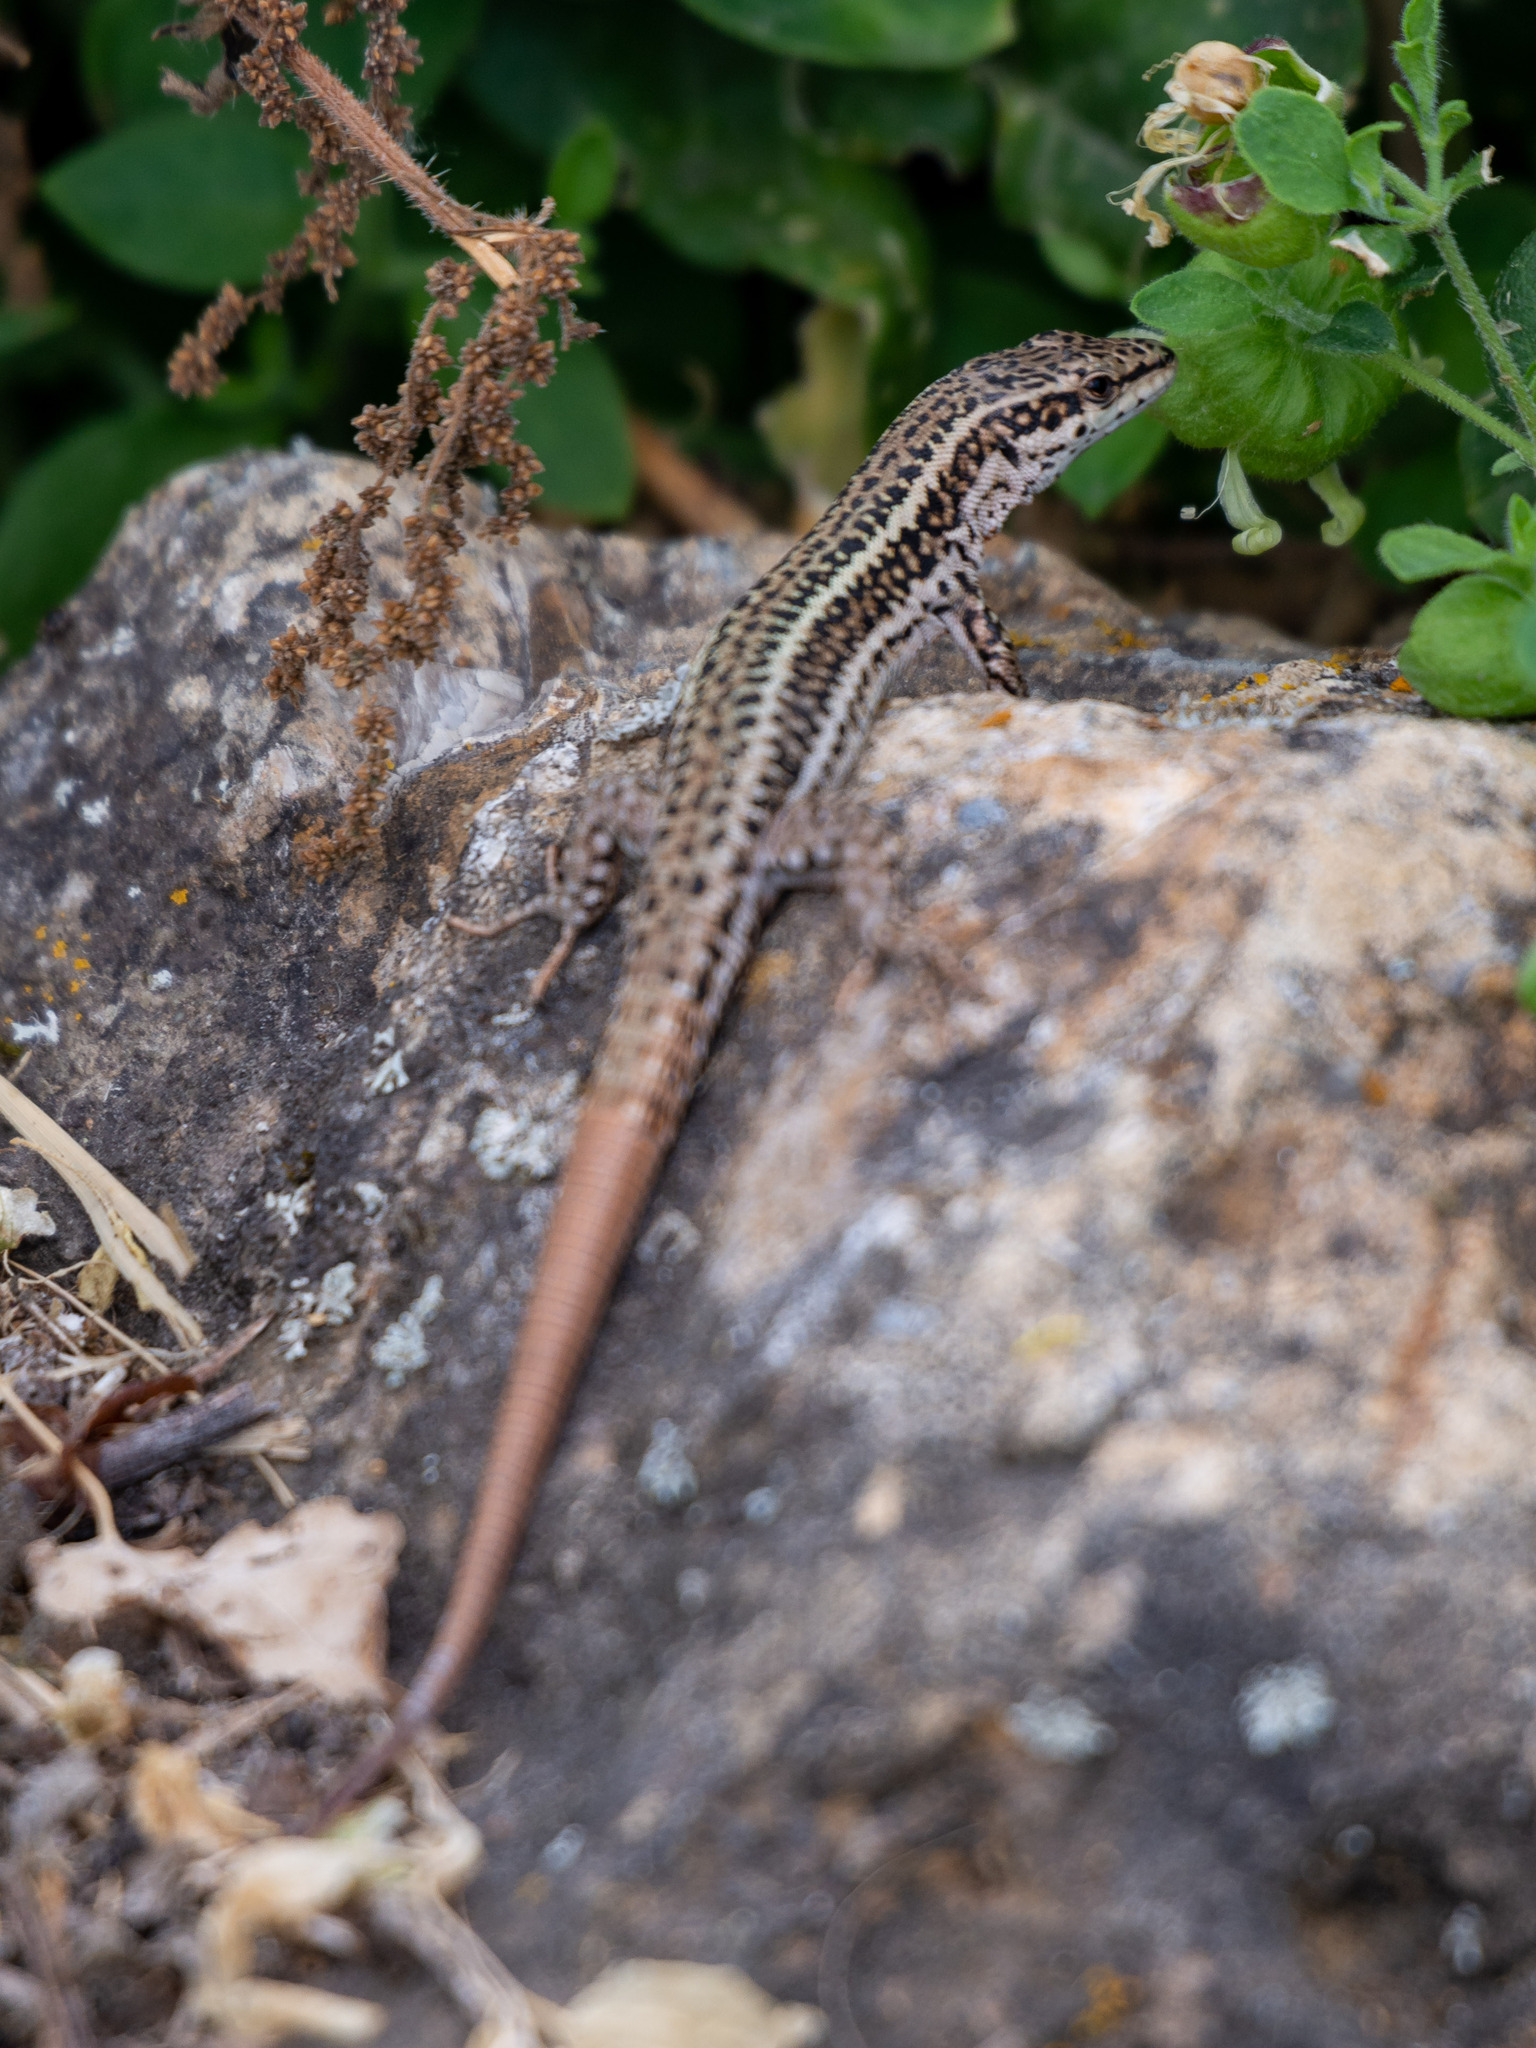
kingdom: Animalia
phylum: Chordata
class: Squamata
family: Lacertidae
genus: Podarcis
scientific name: Podarcis liolepis
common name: Catalonian wall lizard
